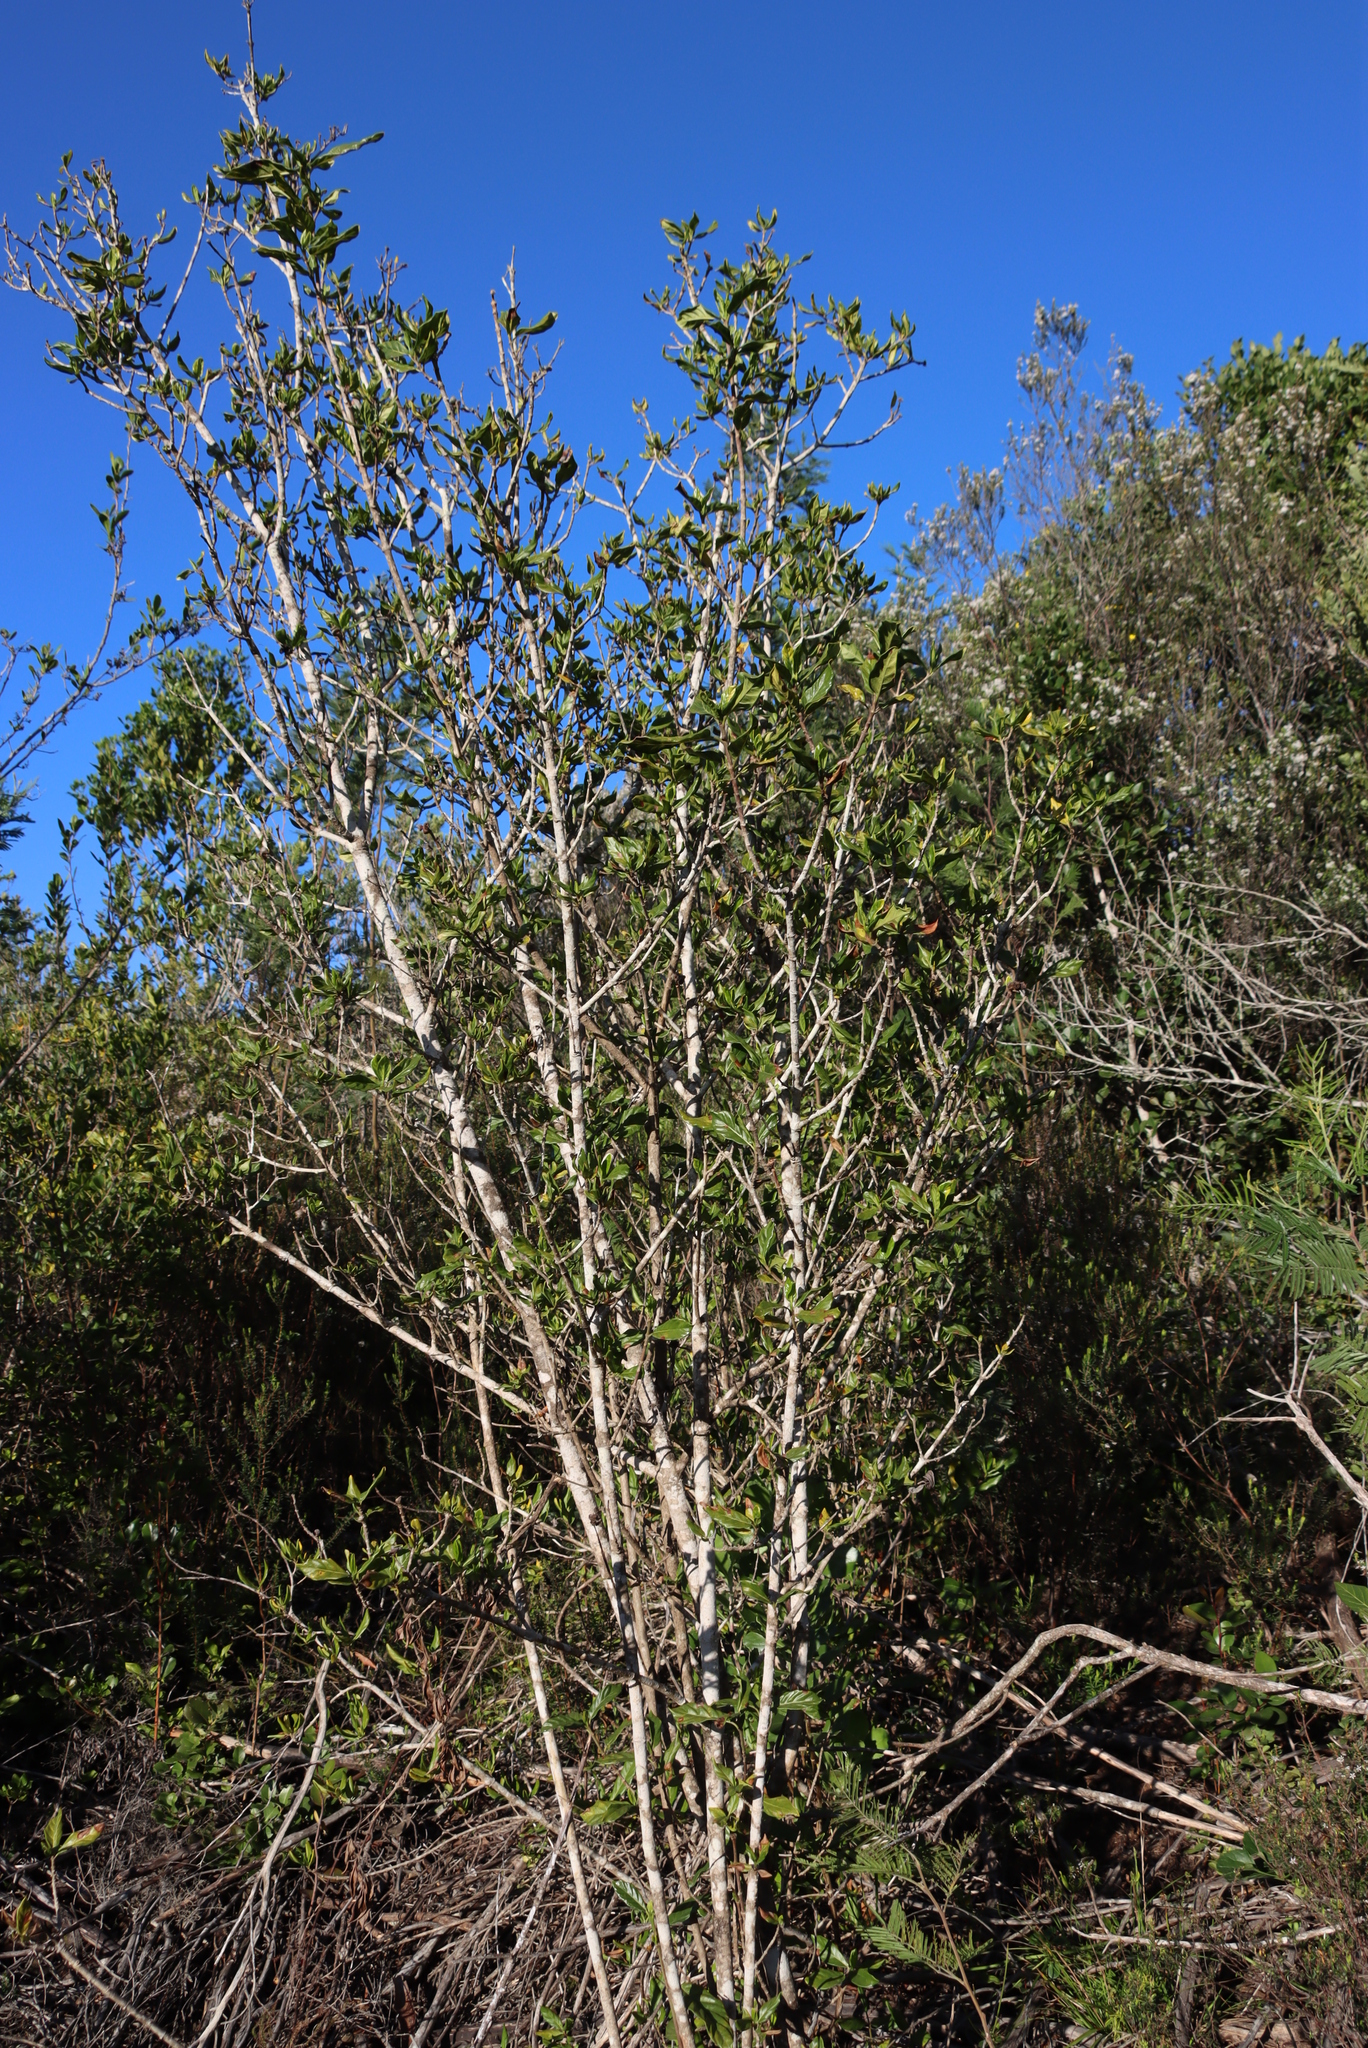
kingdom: Plantae
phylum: Tracheophyta
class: Magnoliopsida
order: Gentianales
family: Rubiaceae
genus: Burchellia
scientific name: Burchellia bubalina
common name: Wild pomegranate
